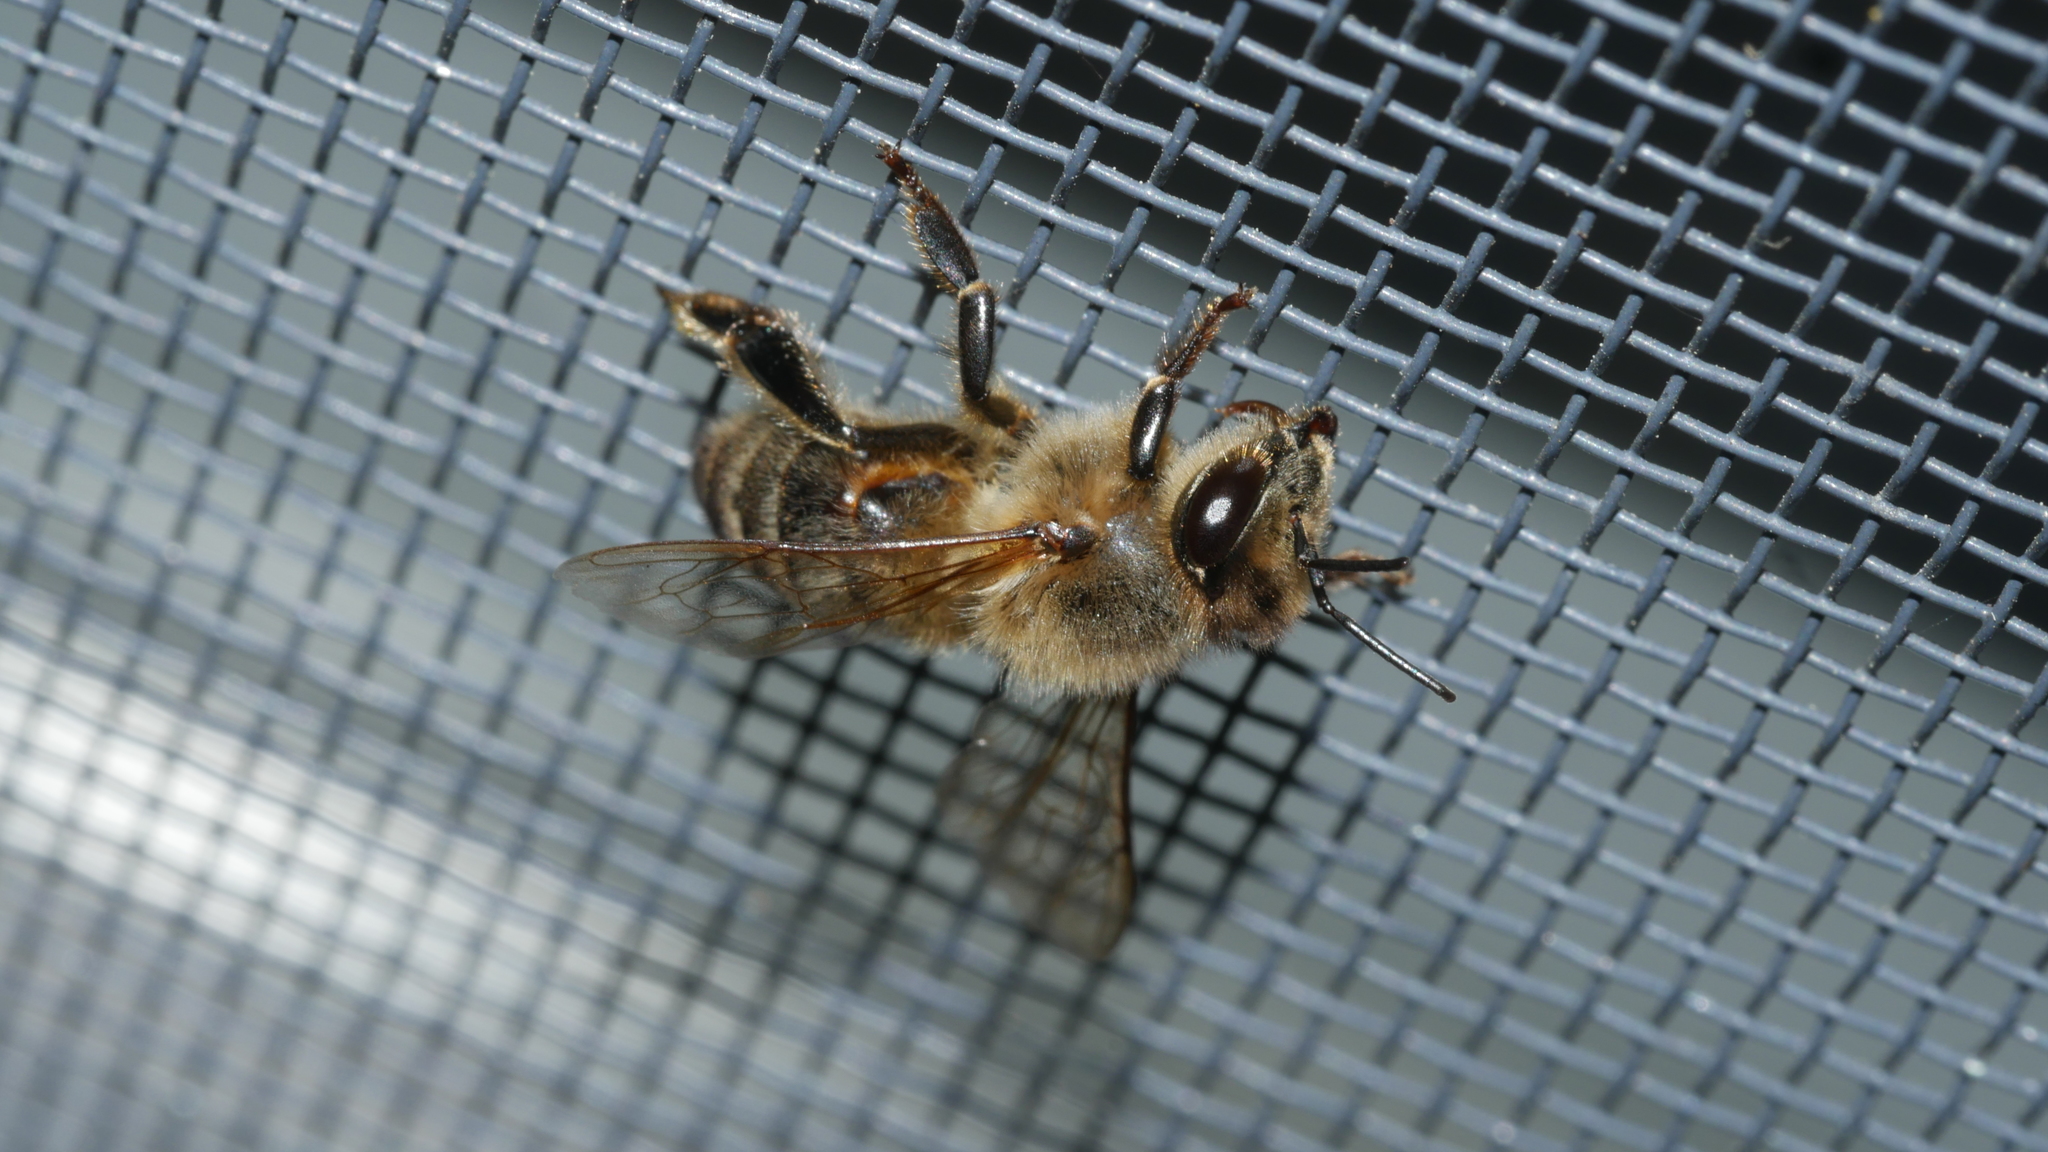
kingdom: Animalia
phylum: Arthropoda
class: Insecta
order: Hymenoptera
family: Apidae
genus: Apis
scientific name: Apis mellifera
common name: Honey bee
